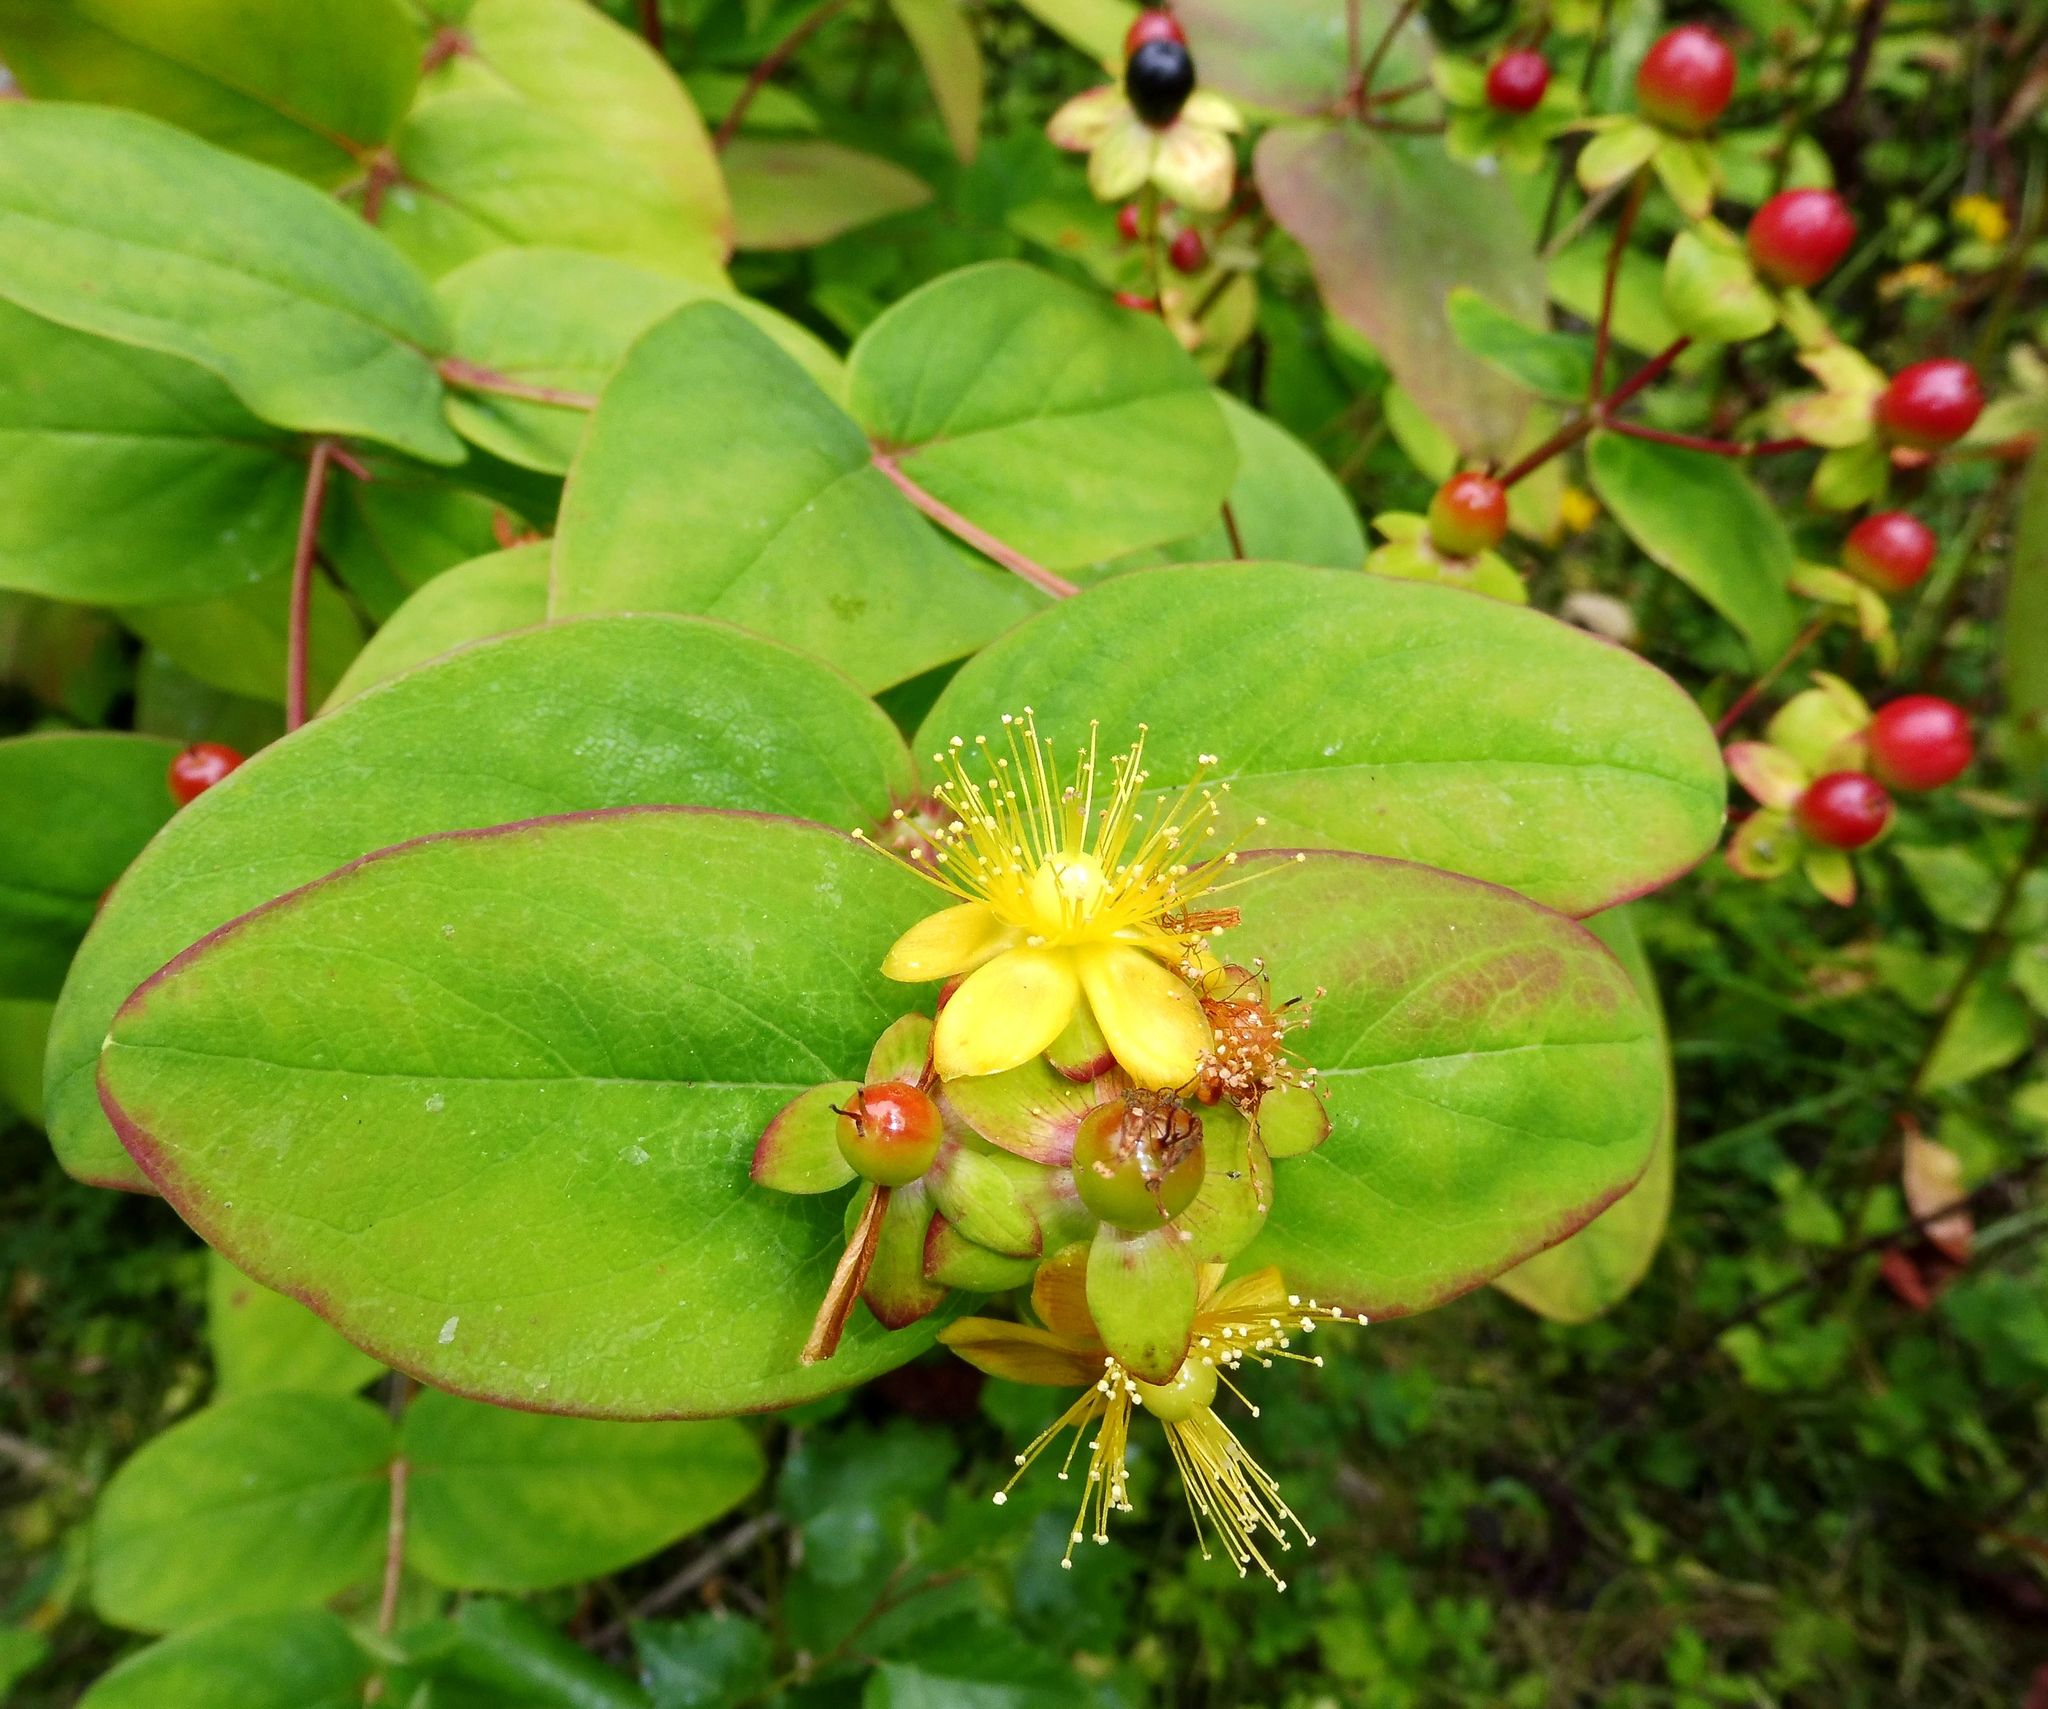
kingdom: Plantae
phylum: Tracheophyta
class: Magnoliopsida
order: Malpighiales
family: Hypericaceae
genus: Hypericum
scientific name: Hypericum androsaemum
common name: Sweet-amber
